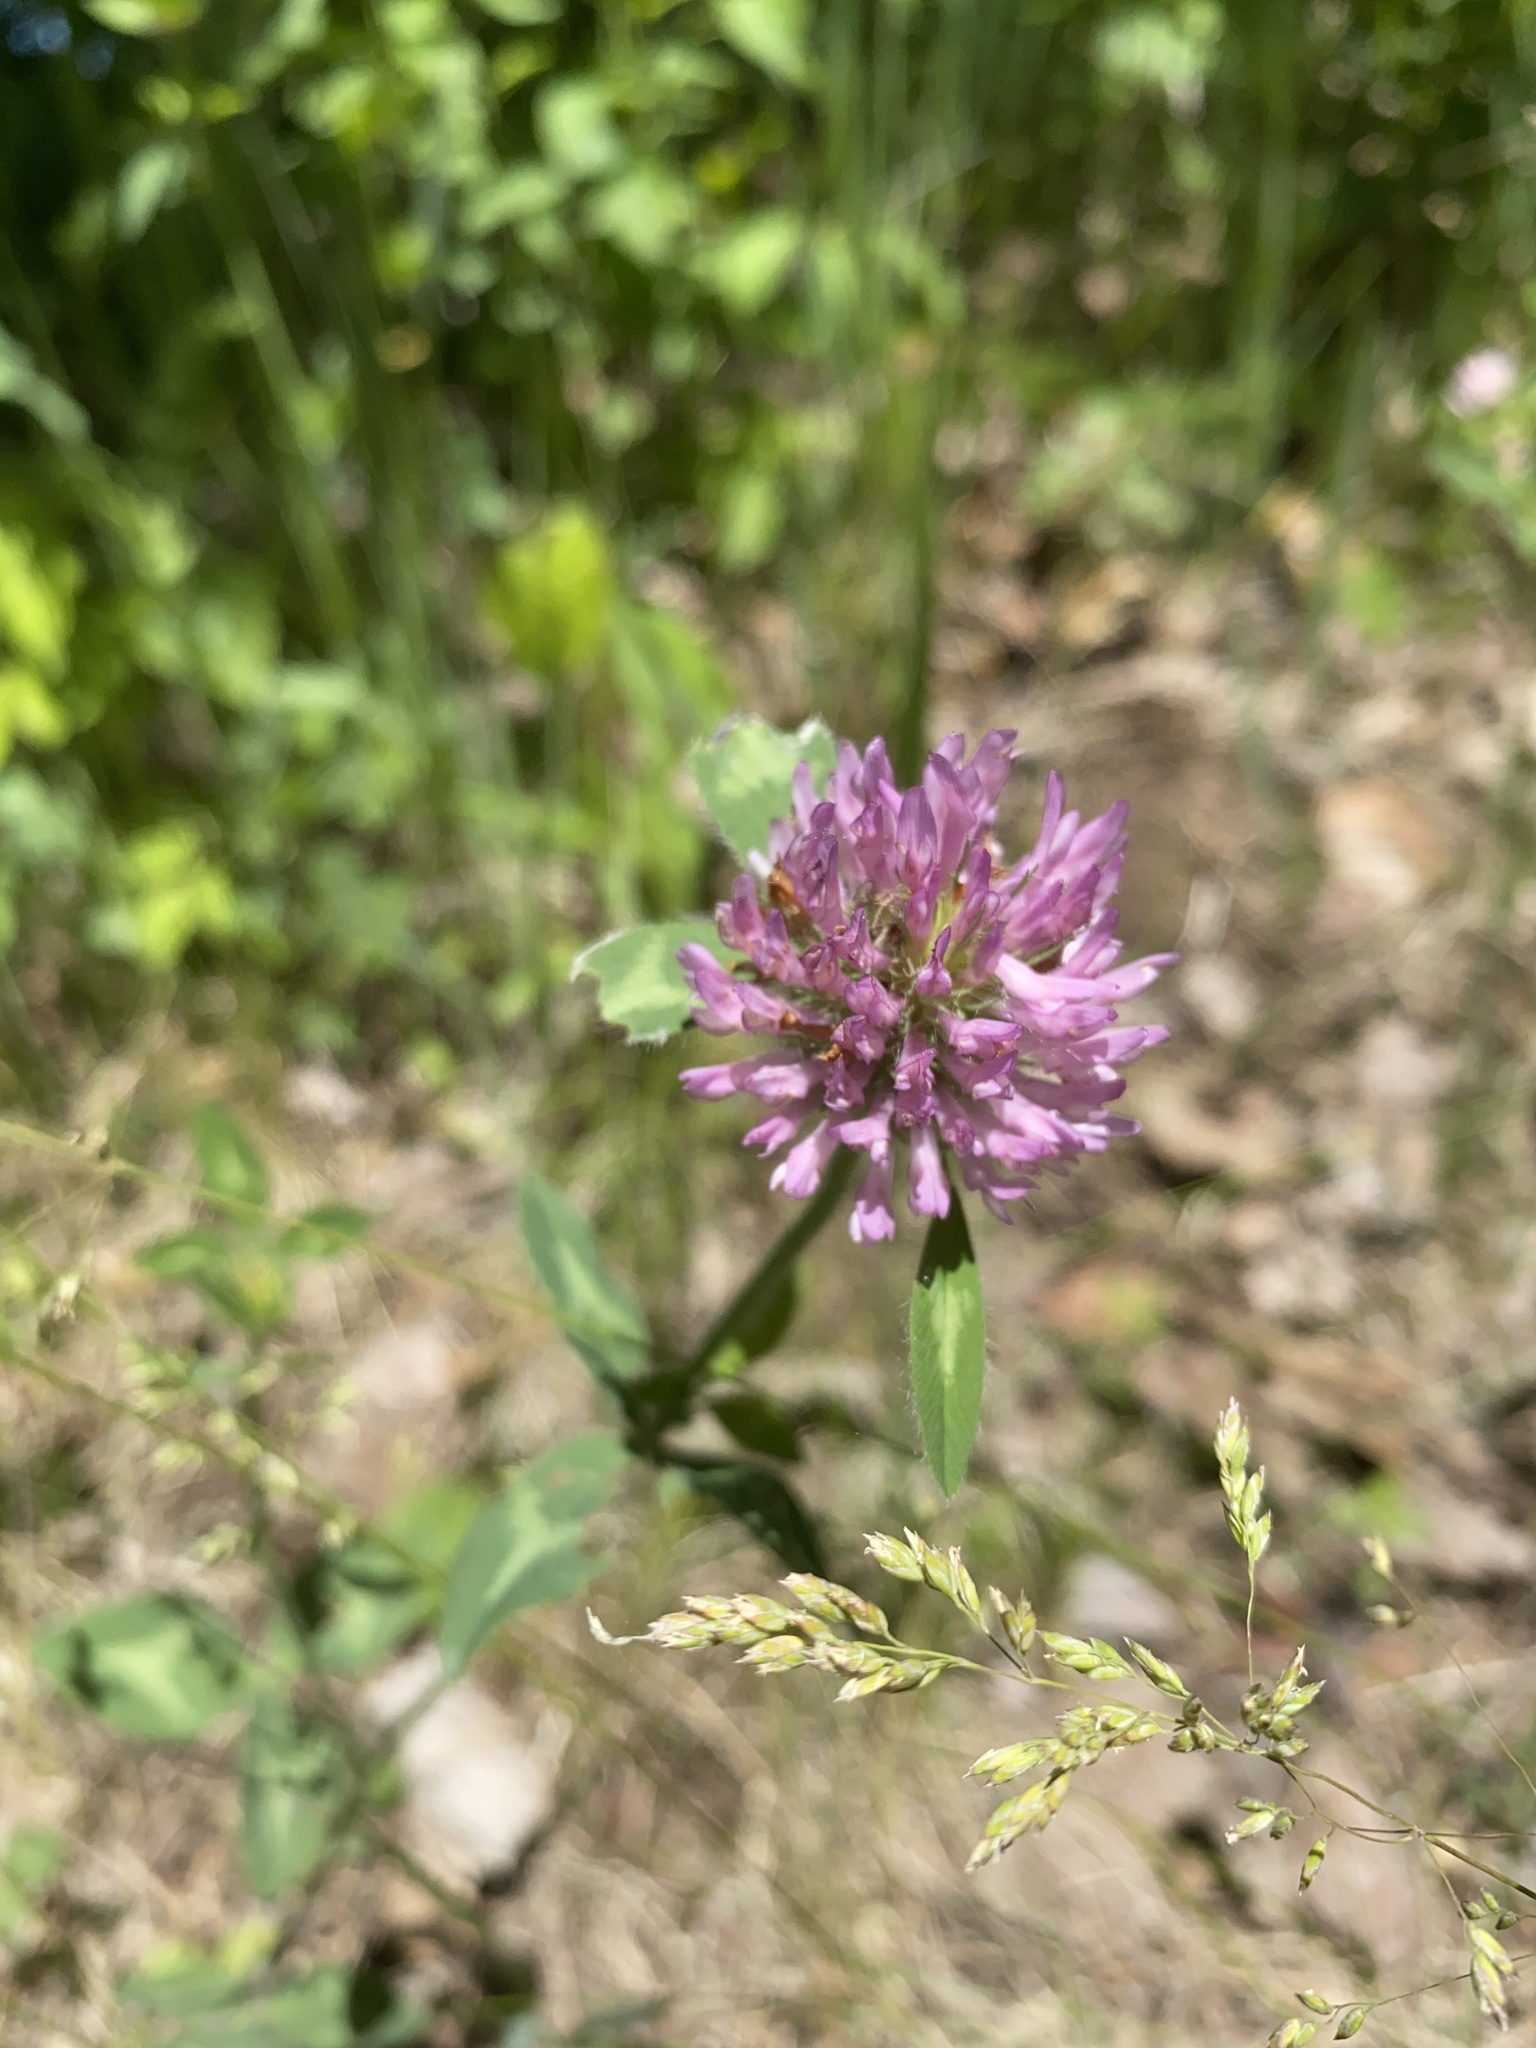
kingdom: Plantae
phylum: Tracheophyta
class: Magnoliopsida
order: Fabales
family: Fabaceae
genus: Trifolium
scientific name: Trifolium pratense
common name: Red clover
